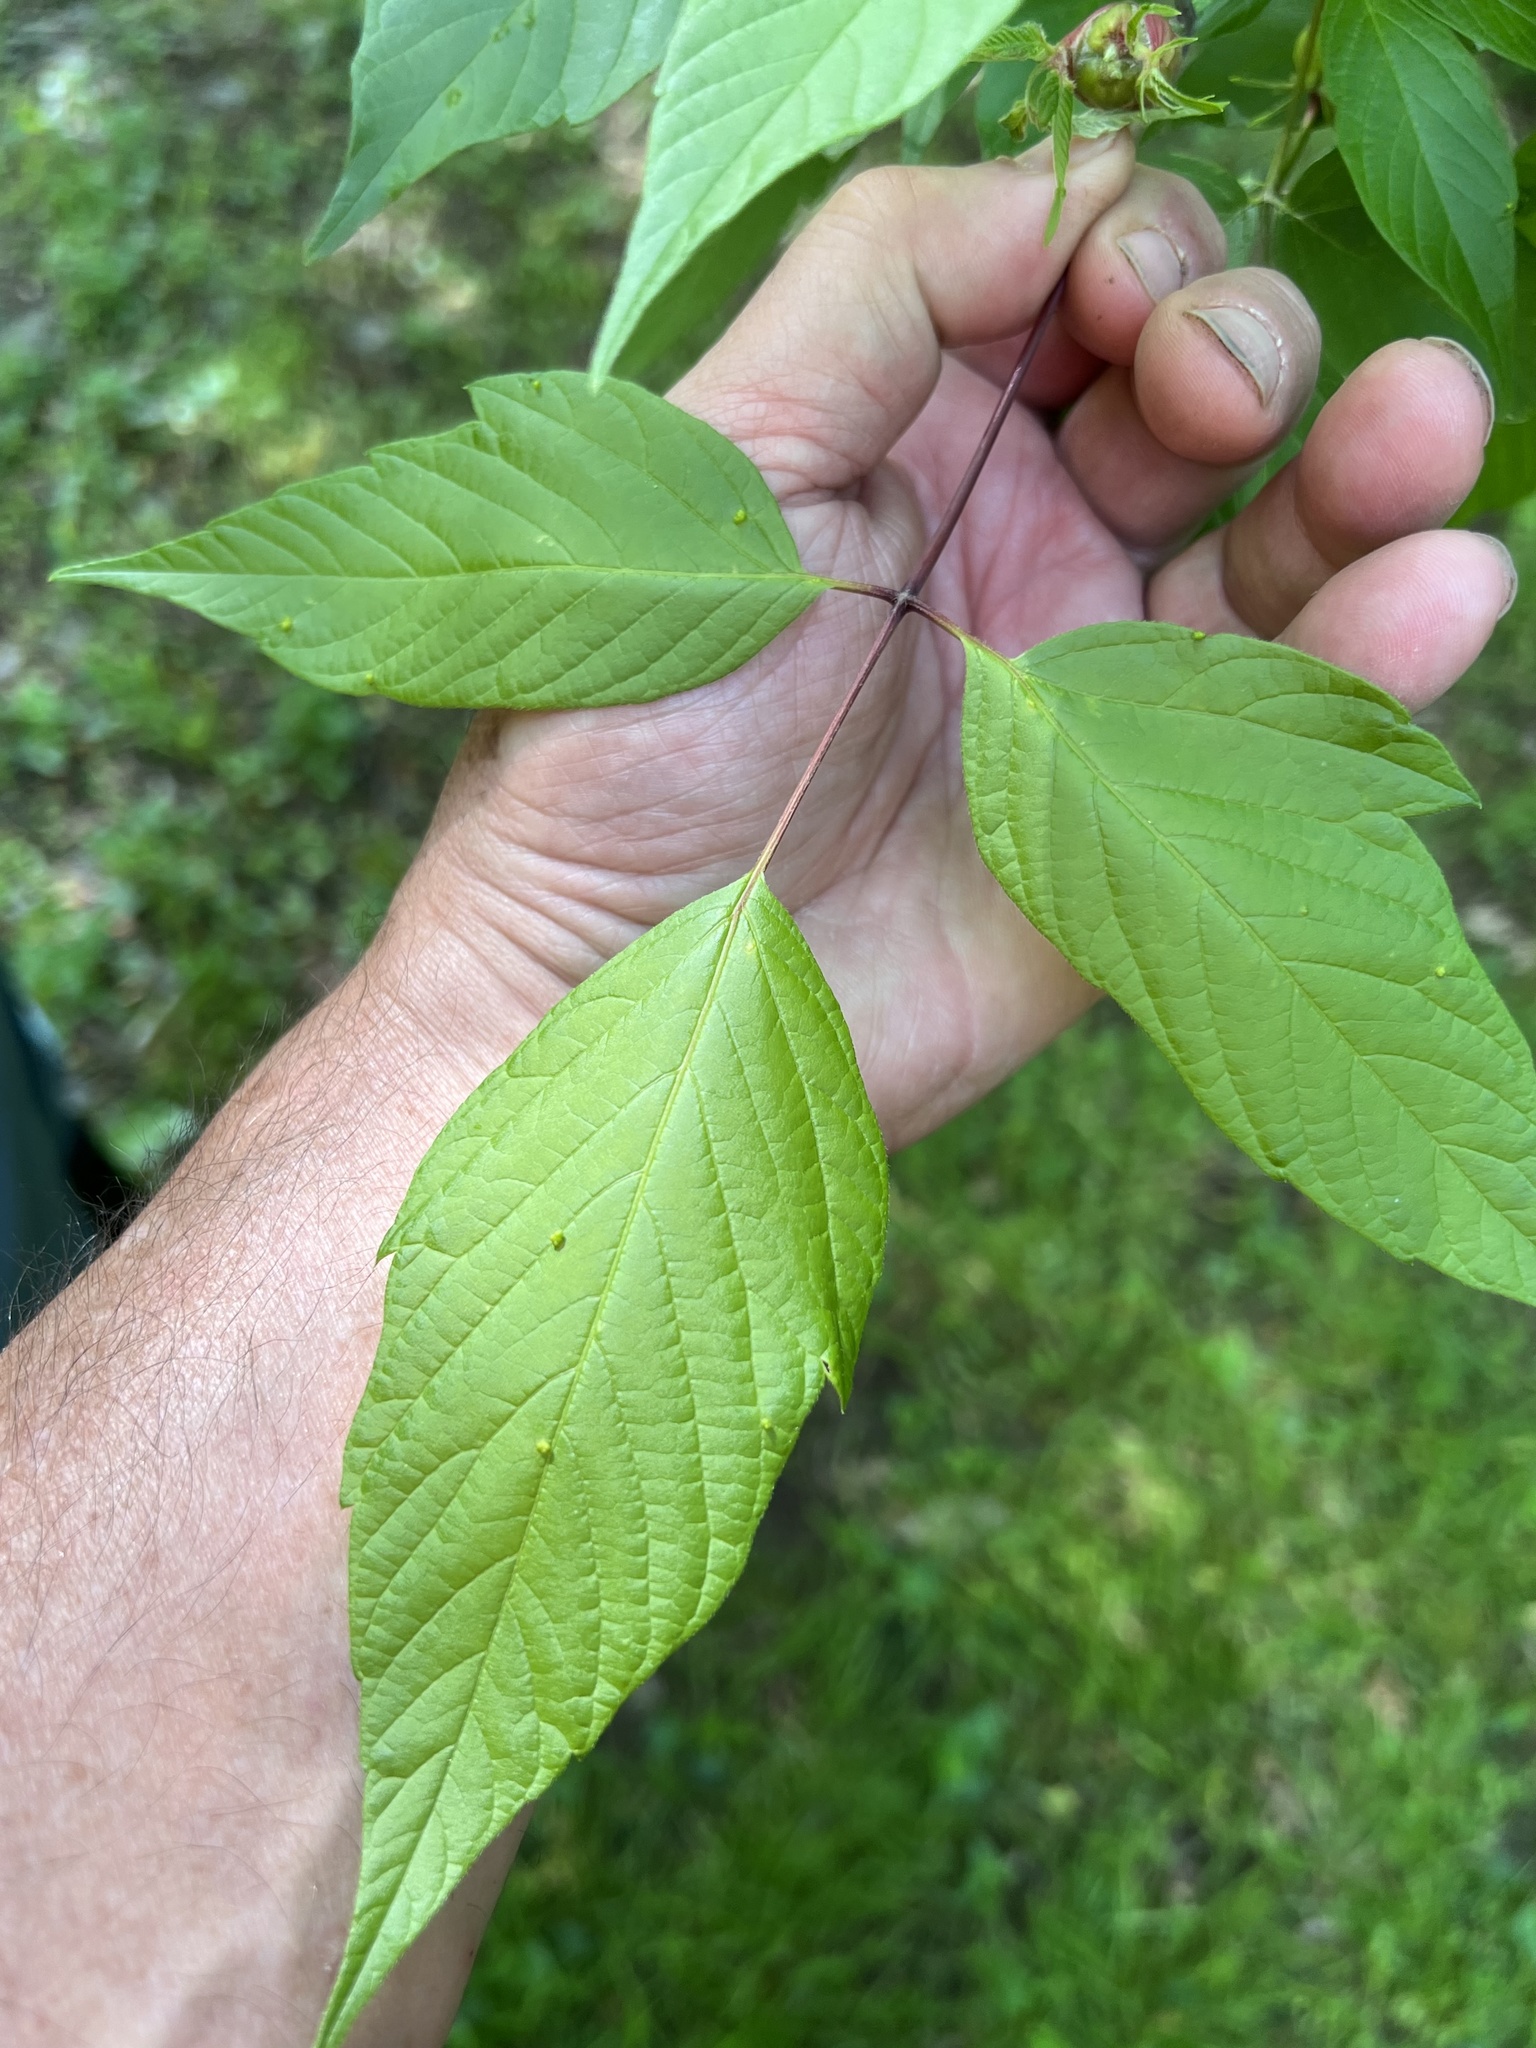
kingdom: Plantae
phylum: Tracheophyta
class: Magnoliopsida
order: Sapindales
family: Sapindaceae
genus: Acer
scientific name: Acer negundo
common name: Ashleaf maple
